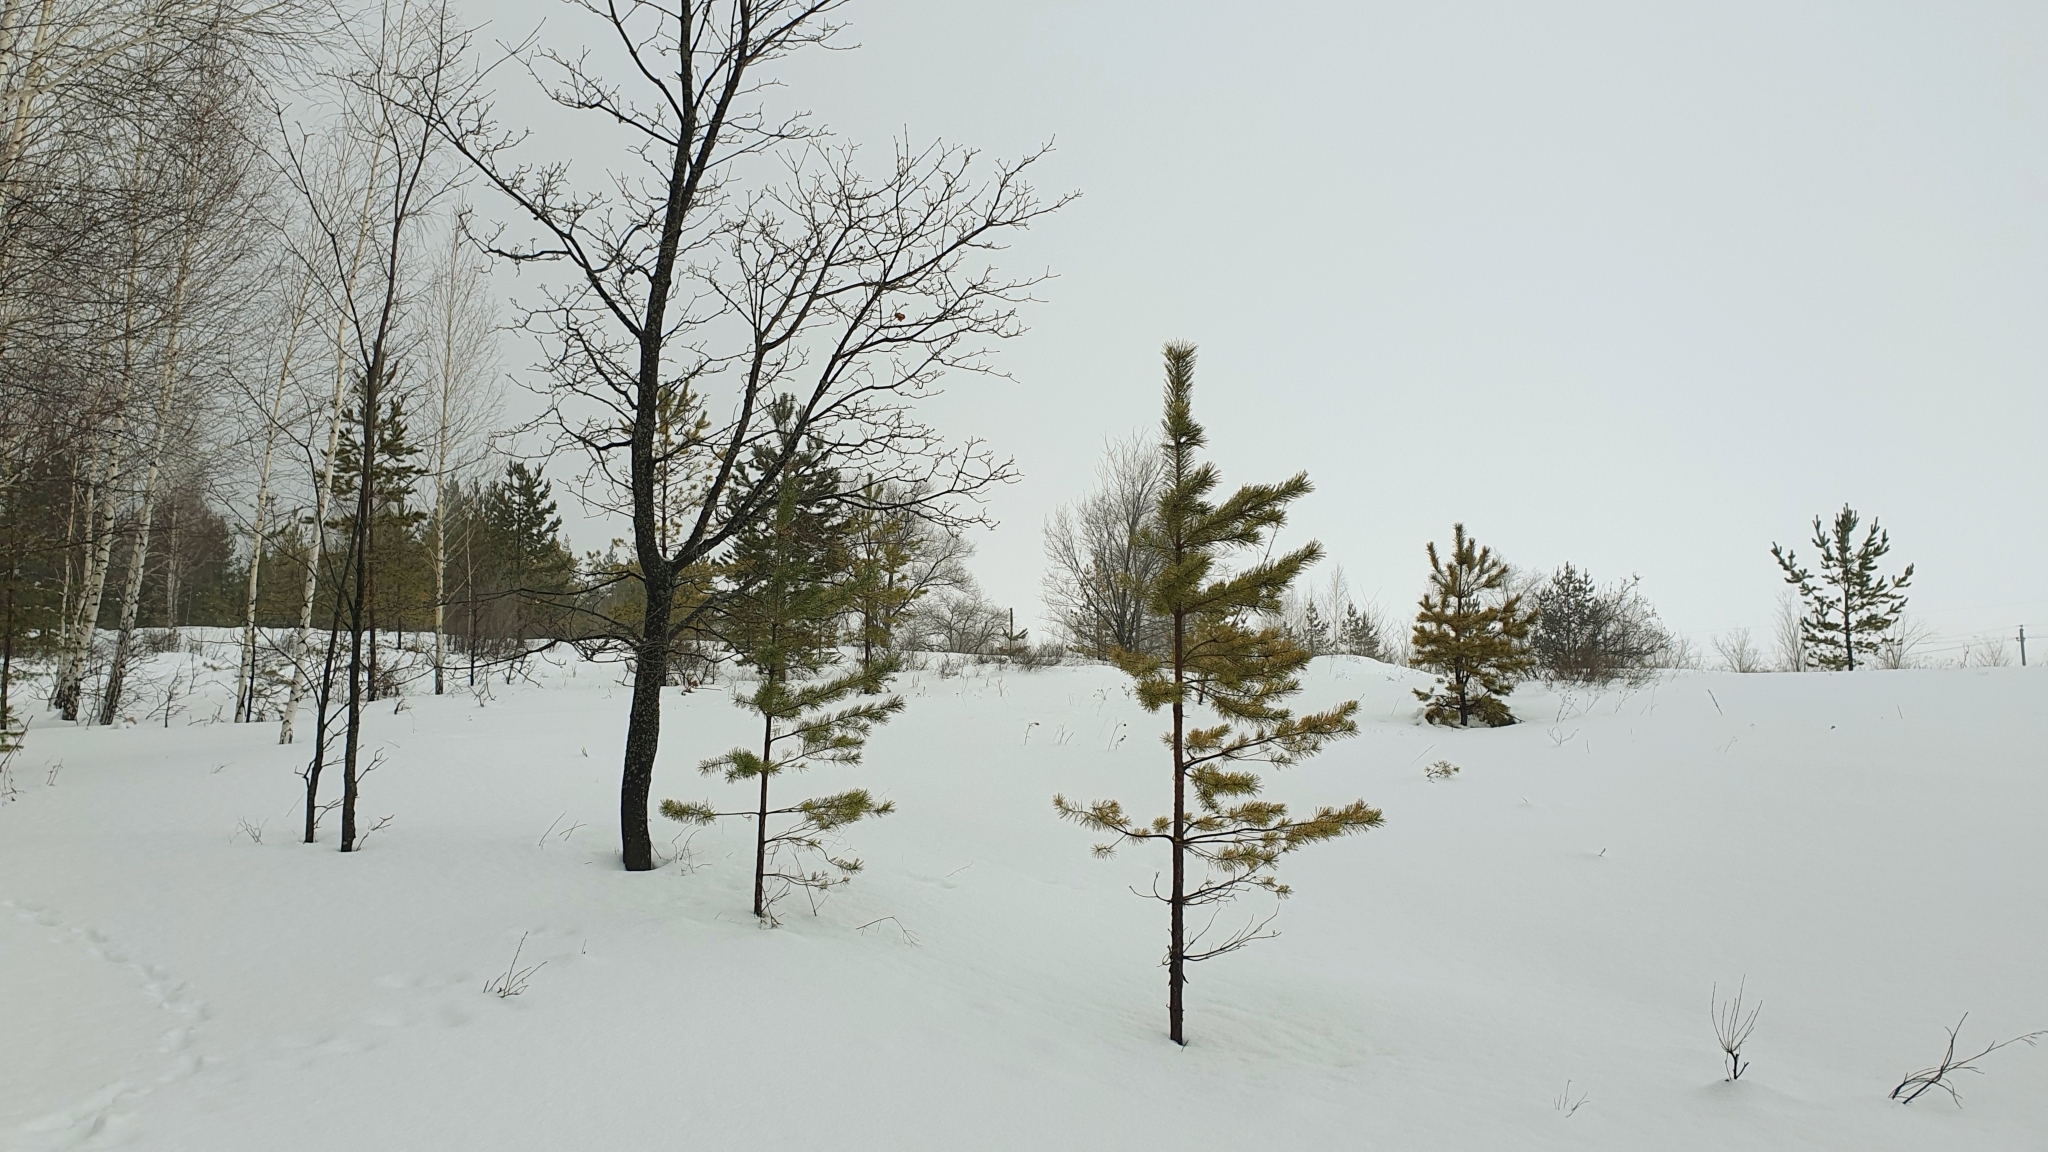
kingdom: Plantae
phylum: Tracheophyta
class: Pinopsida
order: Pinales
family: Pinaceae
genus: Pinus
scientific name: Pinus sylvestris
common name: Scots pine
